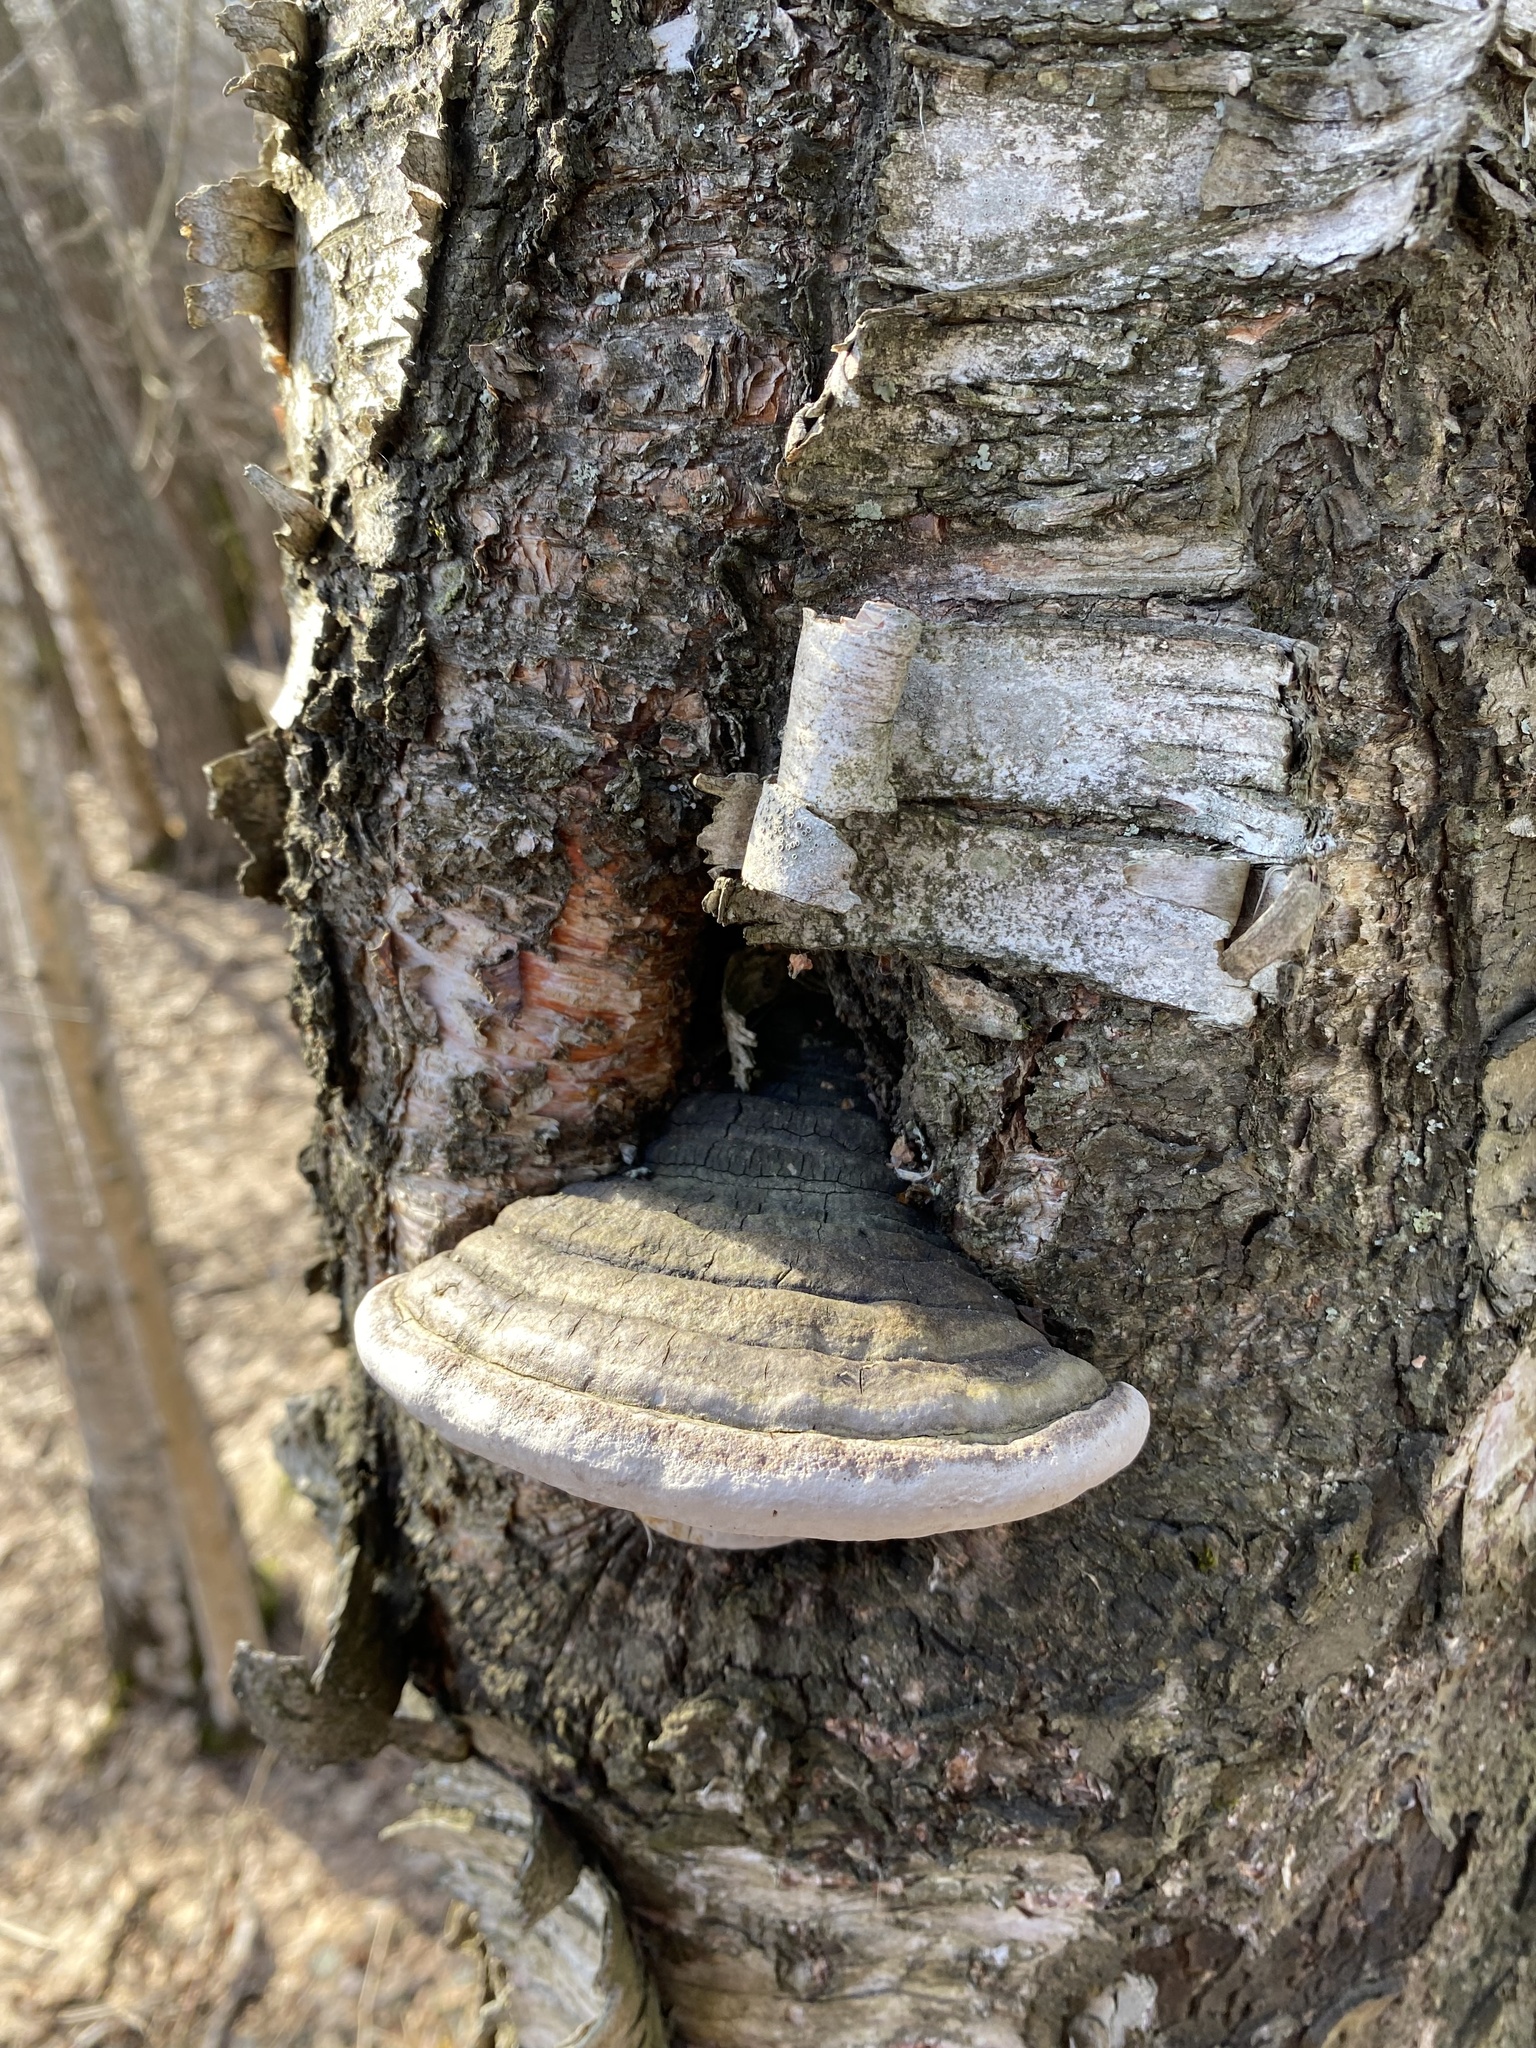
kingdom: Fungi
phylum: Basidiomycota
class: Agaricomycetes
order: Hymenochaetales
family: Hymenochaetaceae
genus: Phellinus
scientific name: Phellinus igniarius
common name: Willow bracket
